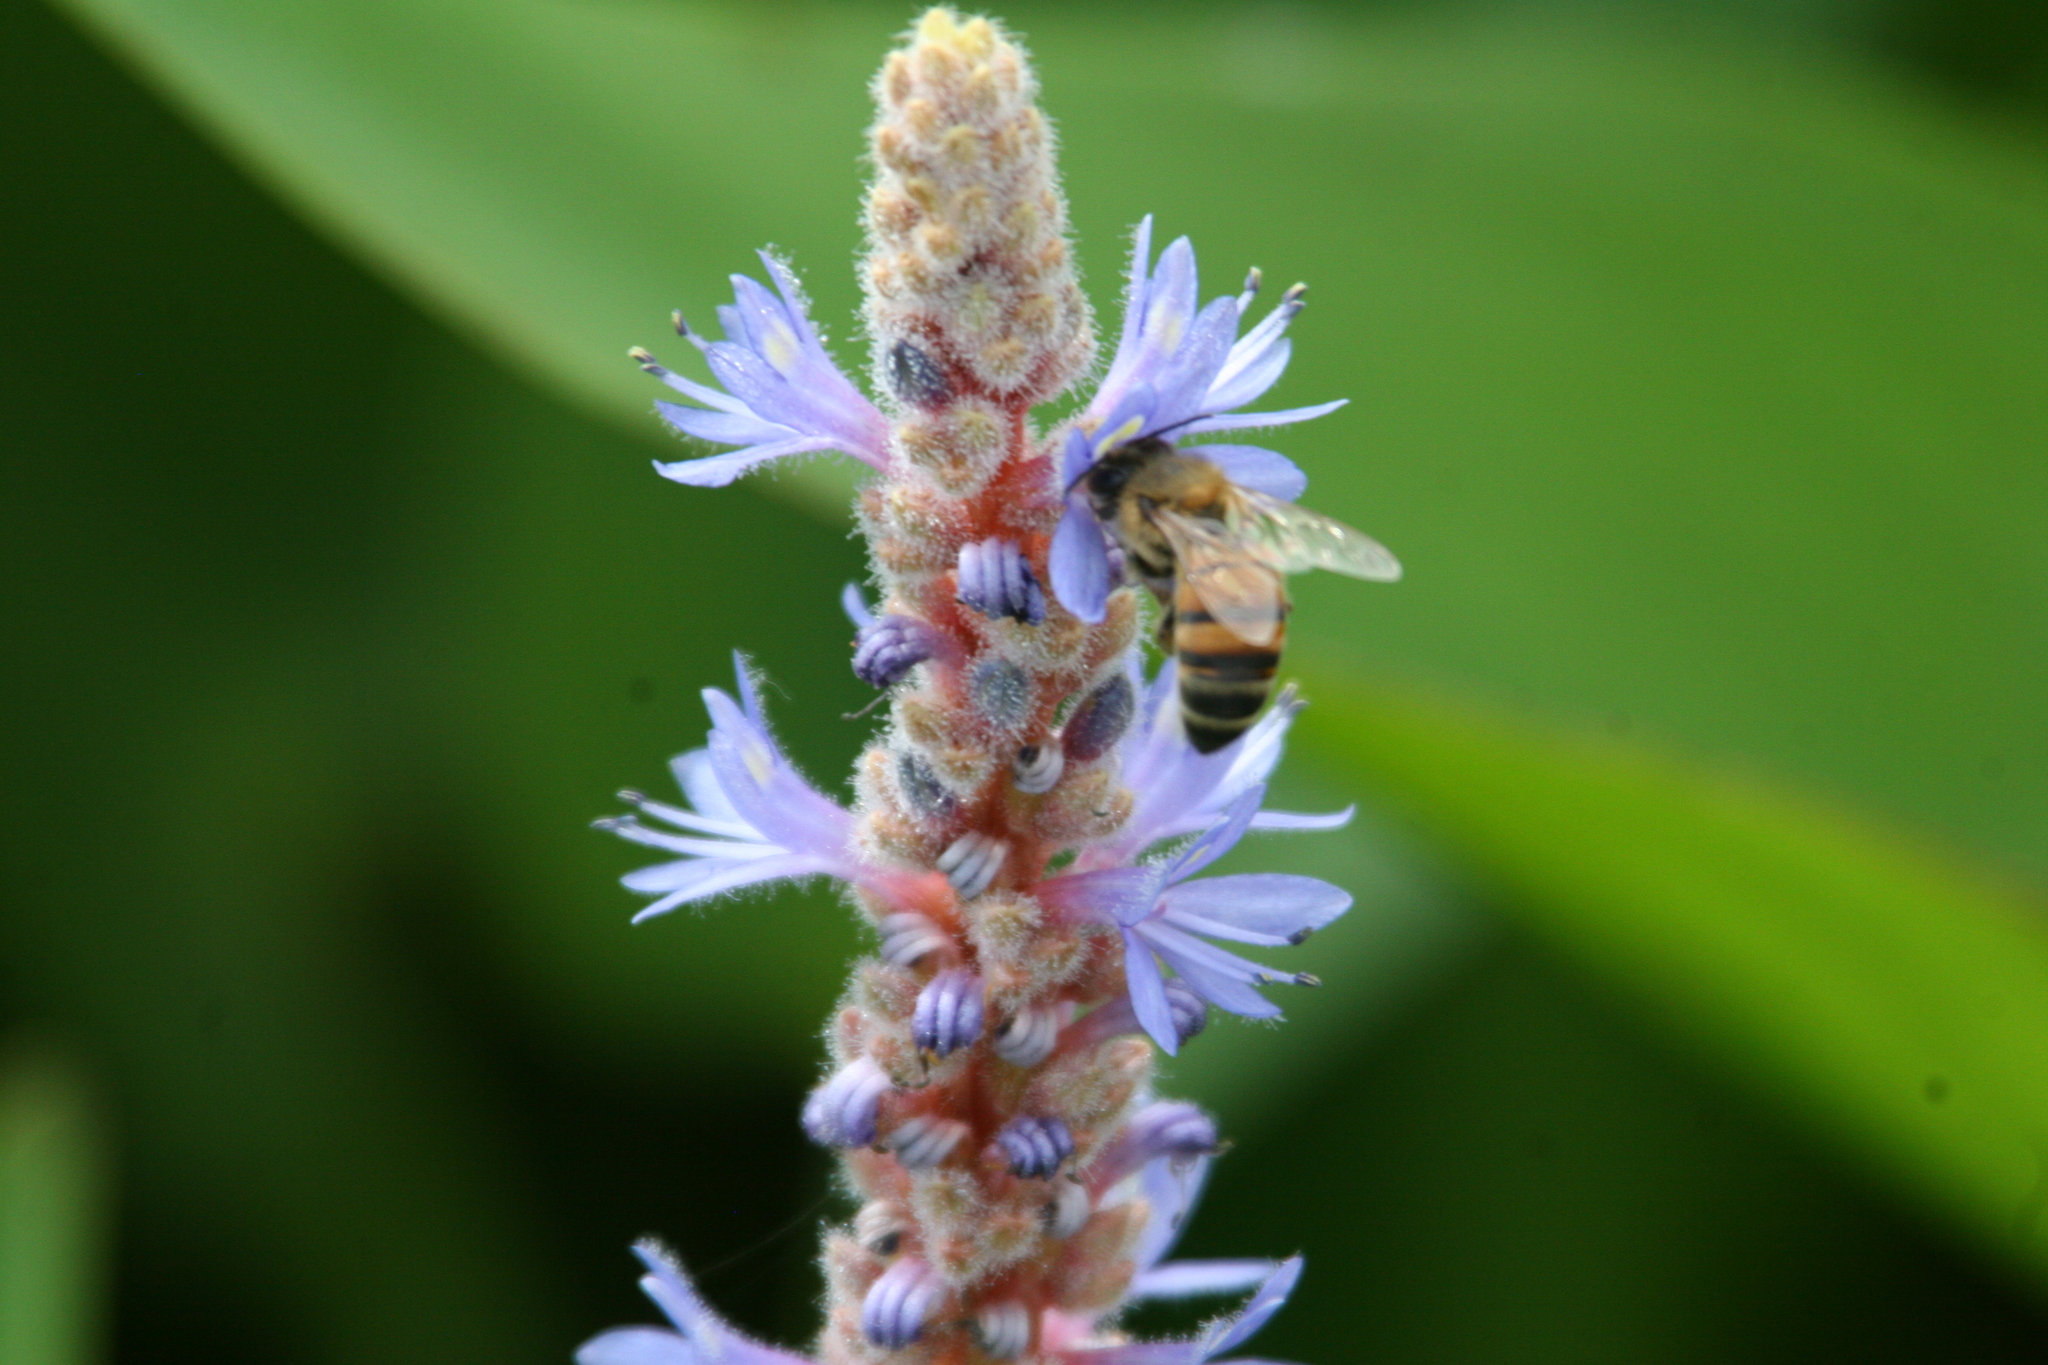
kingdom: Animalia
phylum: Arthropoda
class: Insecta
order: Hymenoptera
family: Apidae
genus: Apis
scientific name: Apis mellifera
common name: Honey bee
